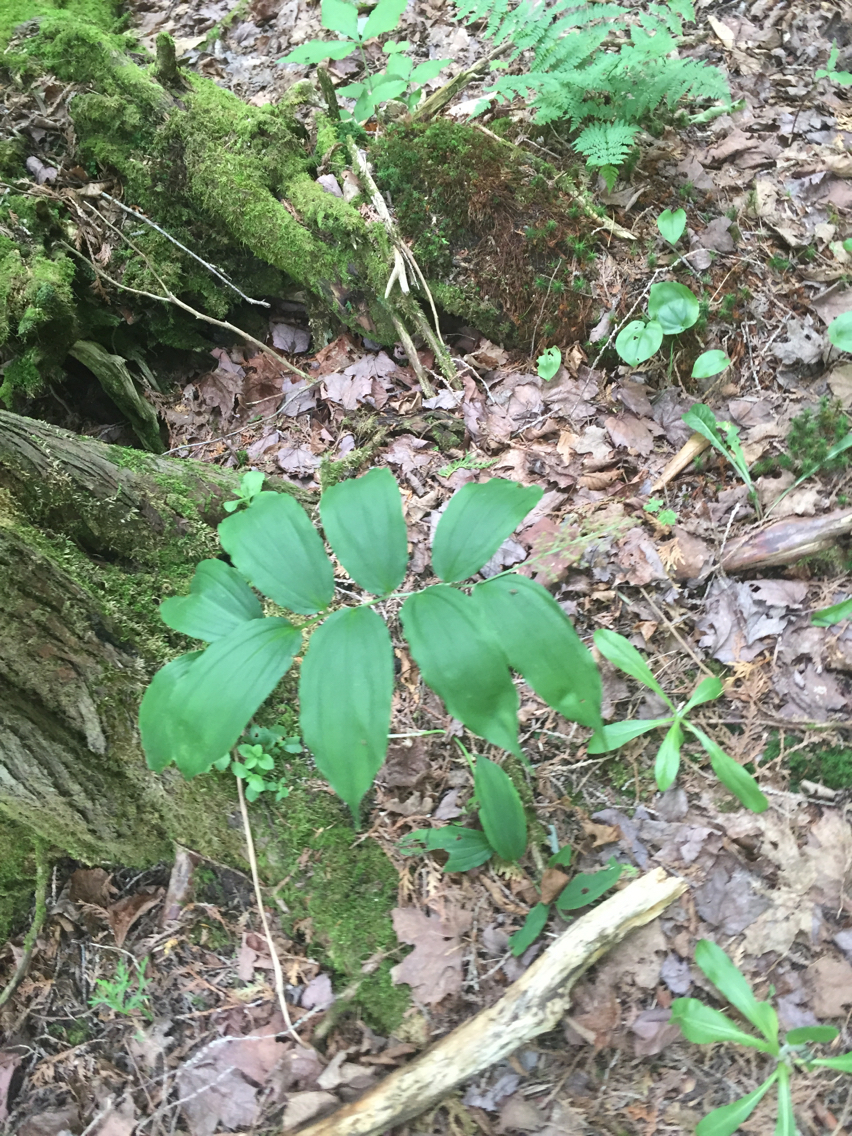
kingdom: Plantae
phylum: Tracheophyta
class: Liliopsida
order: Asparagales
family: Asparagaceae
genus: Maianthemum
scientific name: Maianthemum racemosum
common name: False spikenard
